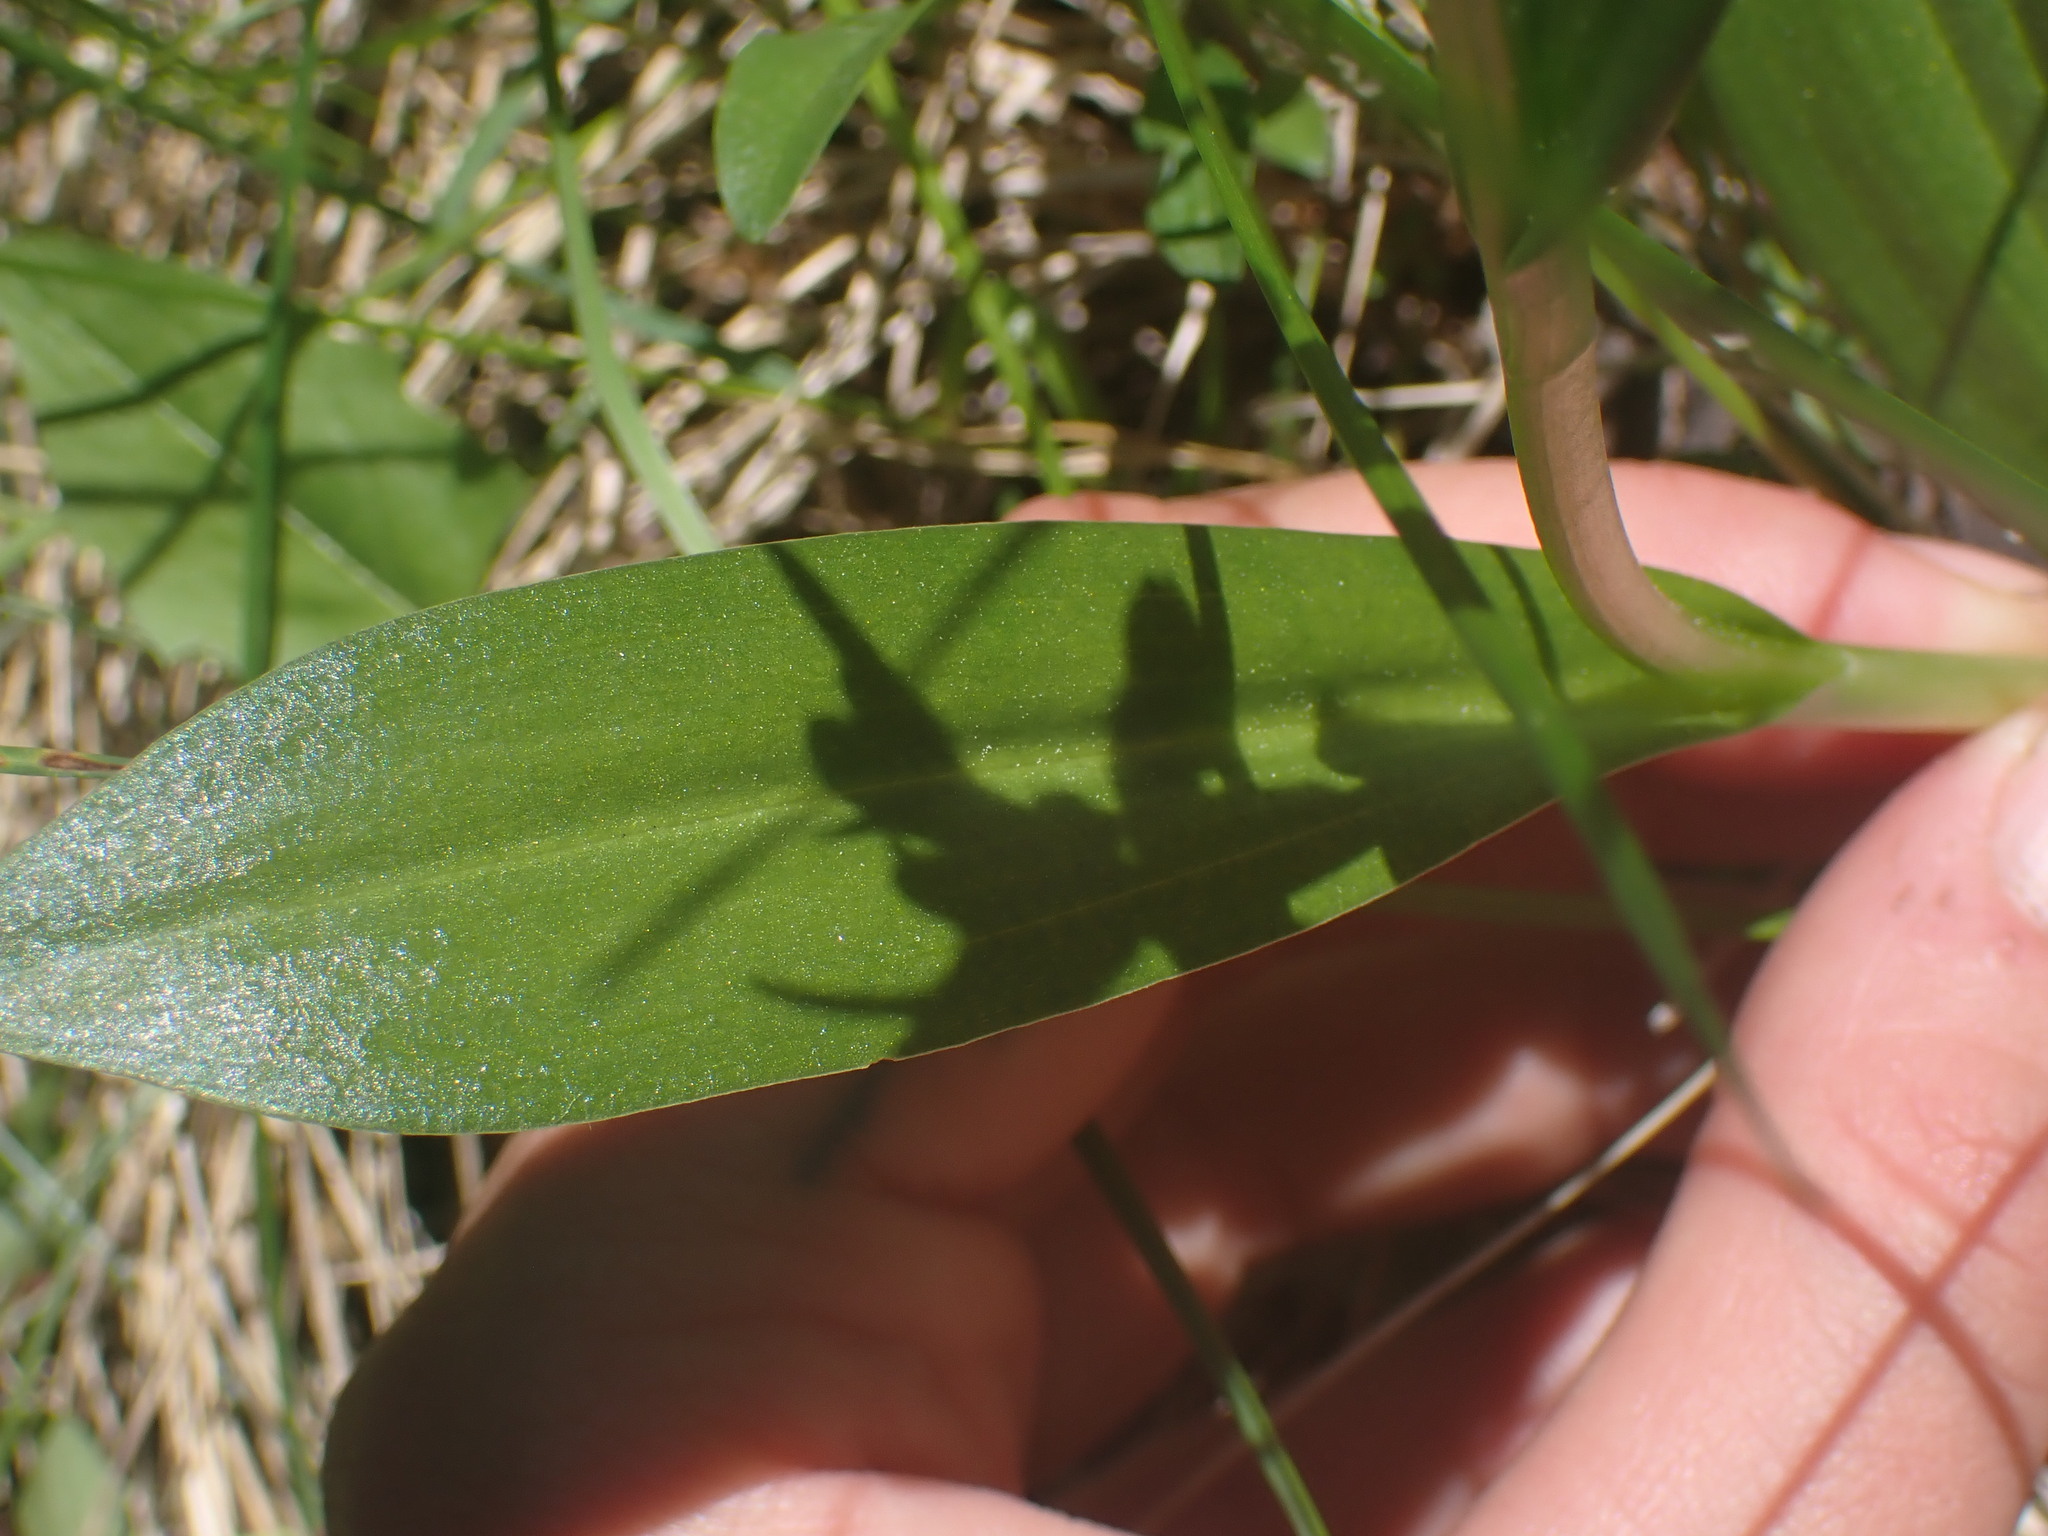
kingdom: Plantae
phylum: Tracheophyta
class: Liliopsida
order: Asparagales
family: Orchidaceae
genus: Dactylorhiza
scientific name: Dactylorhiza viridis
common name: Longbract frog orchid
